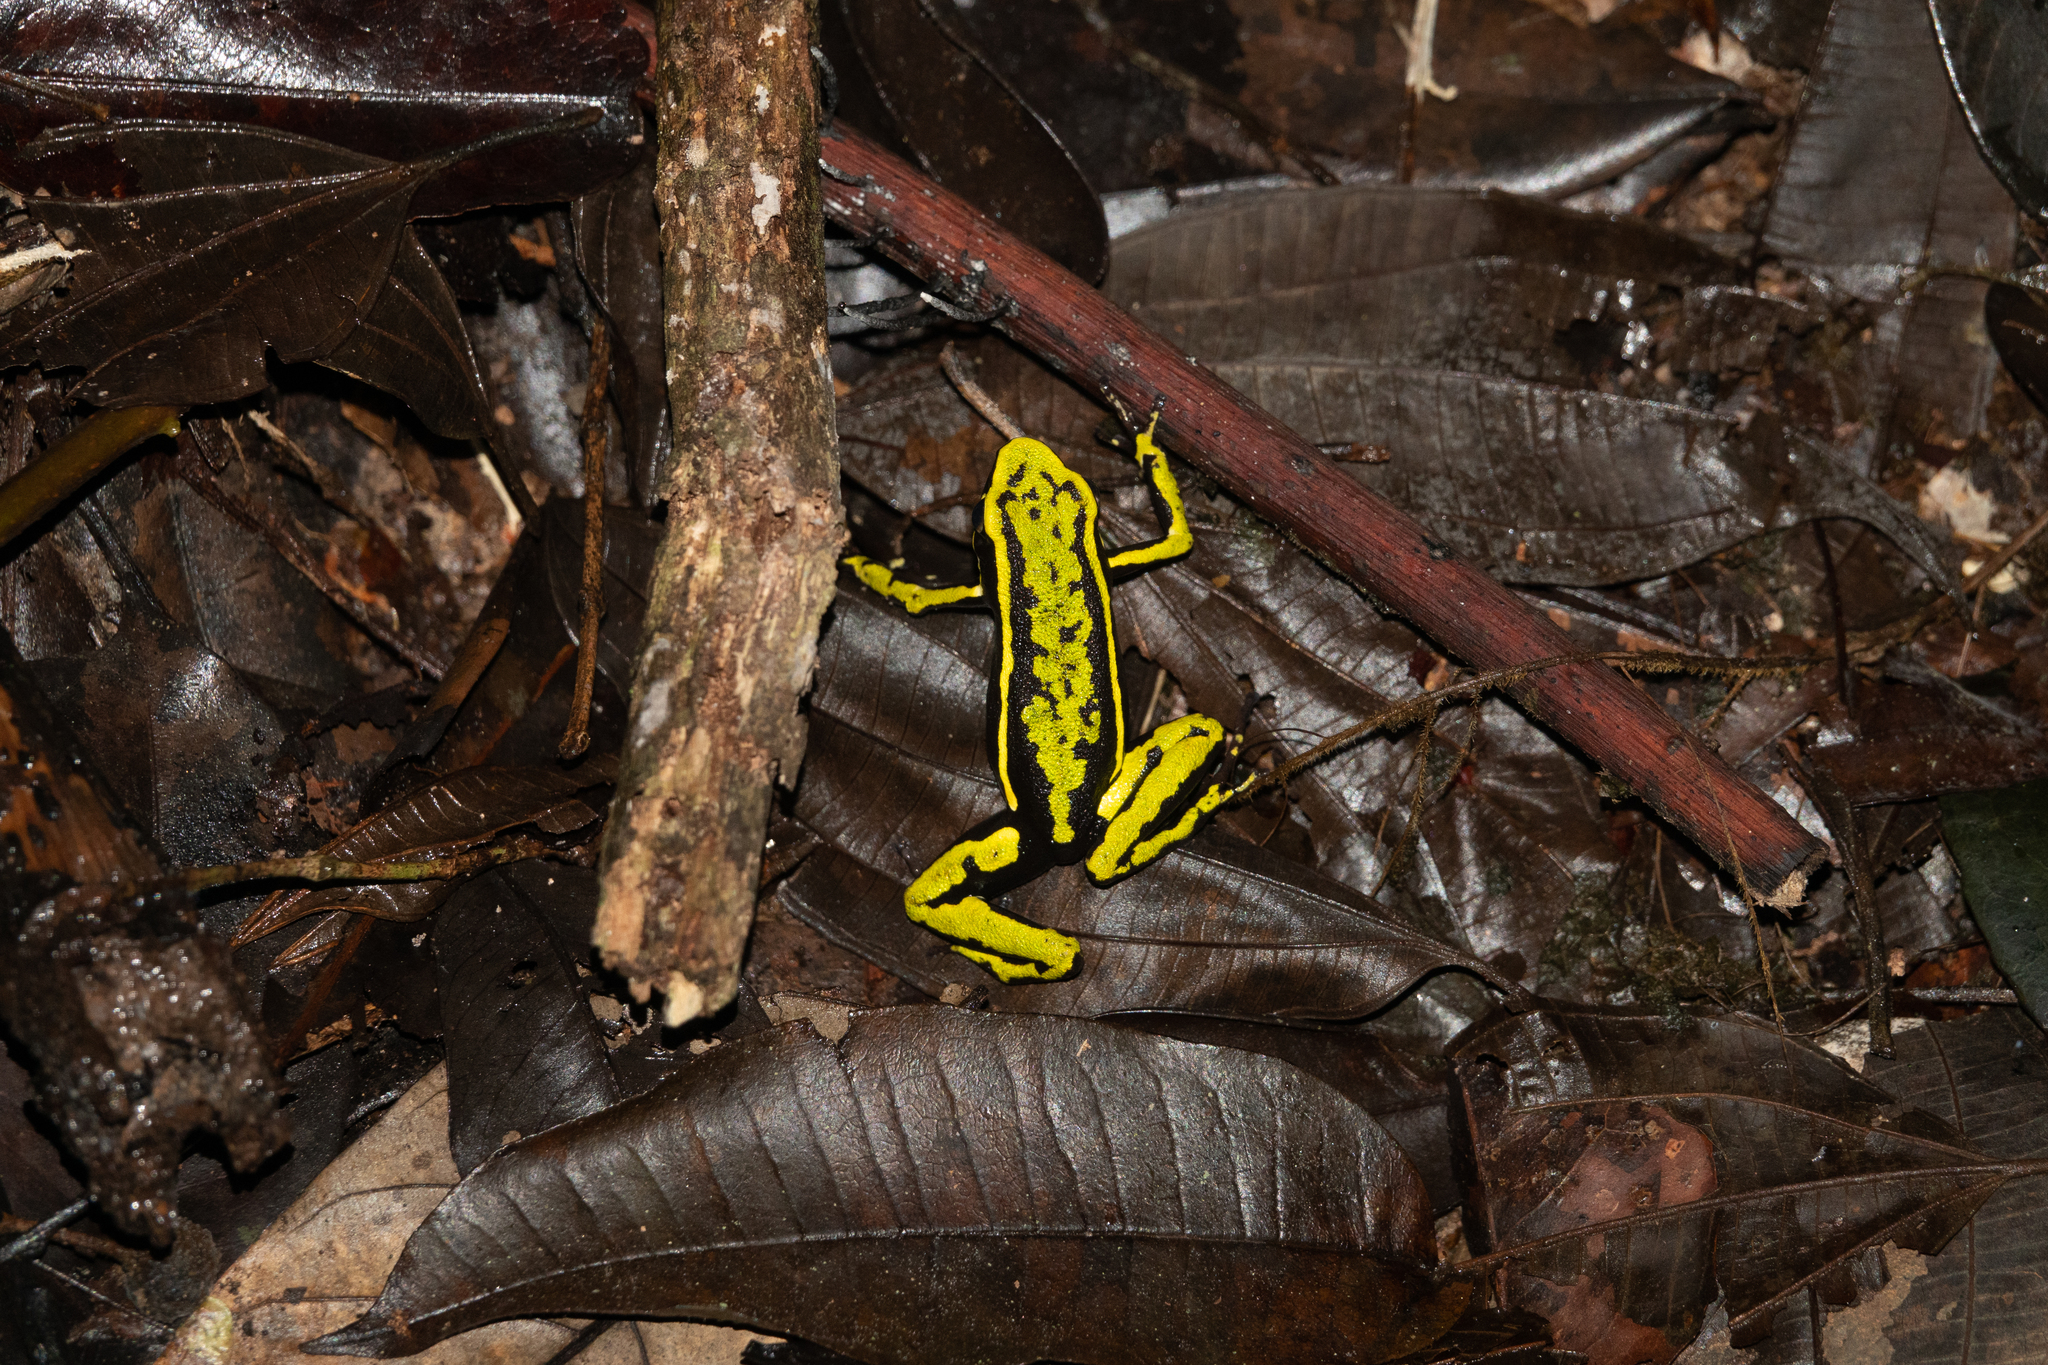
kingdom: Animalia
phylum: Chordata
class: Amphibia
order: Anura
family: Dendrobatidae
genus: Ameerega
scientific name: Ameerega trivittata
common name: Three-striped arrow-poison frog
